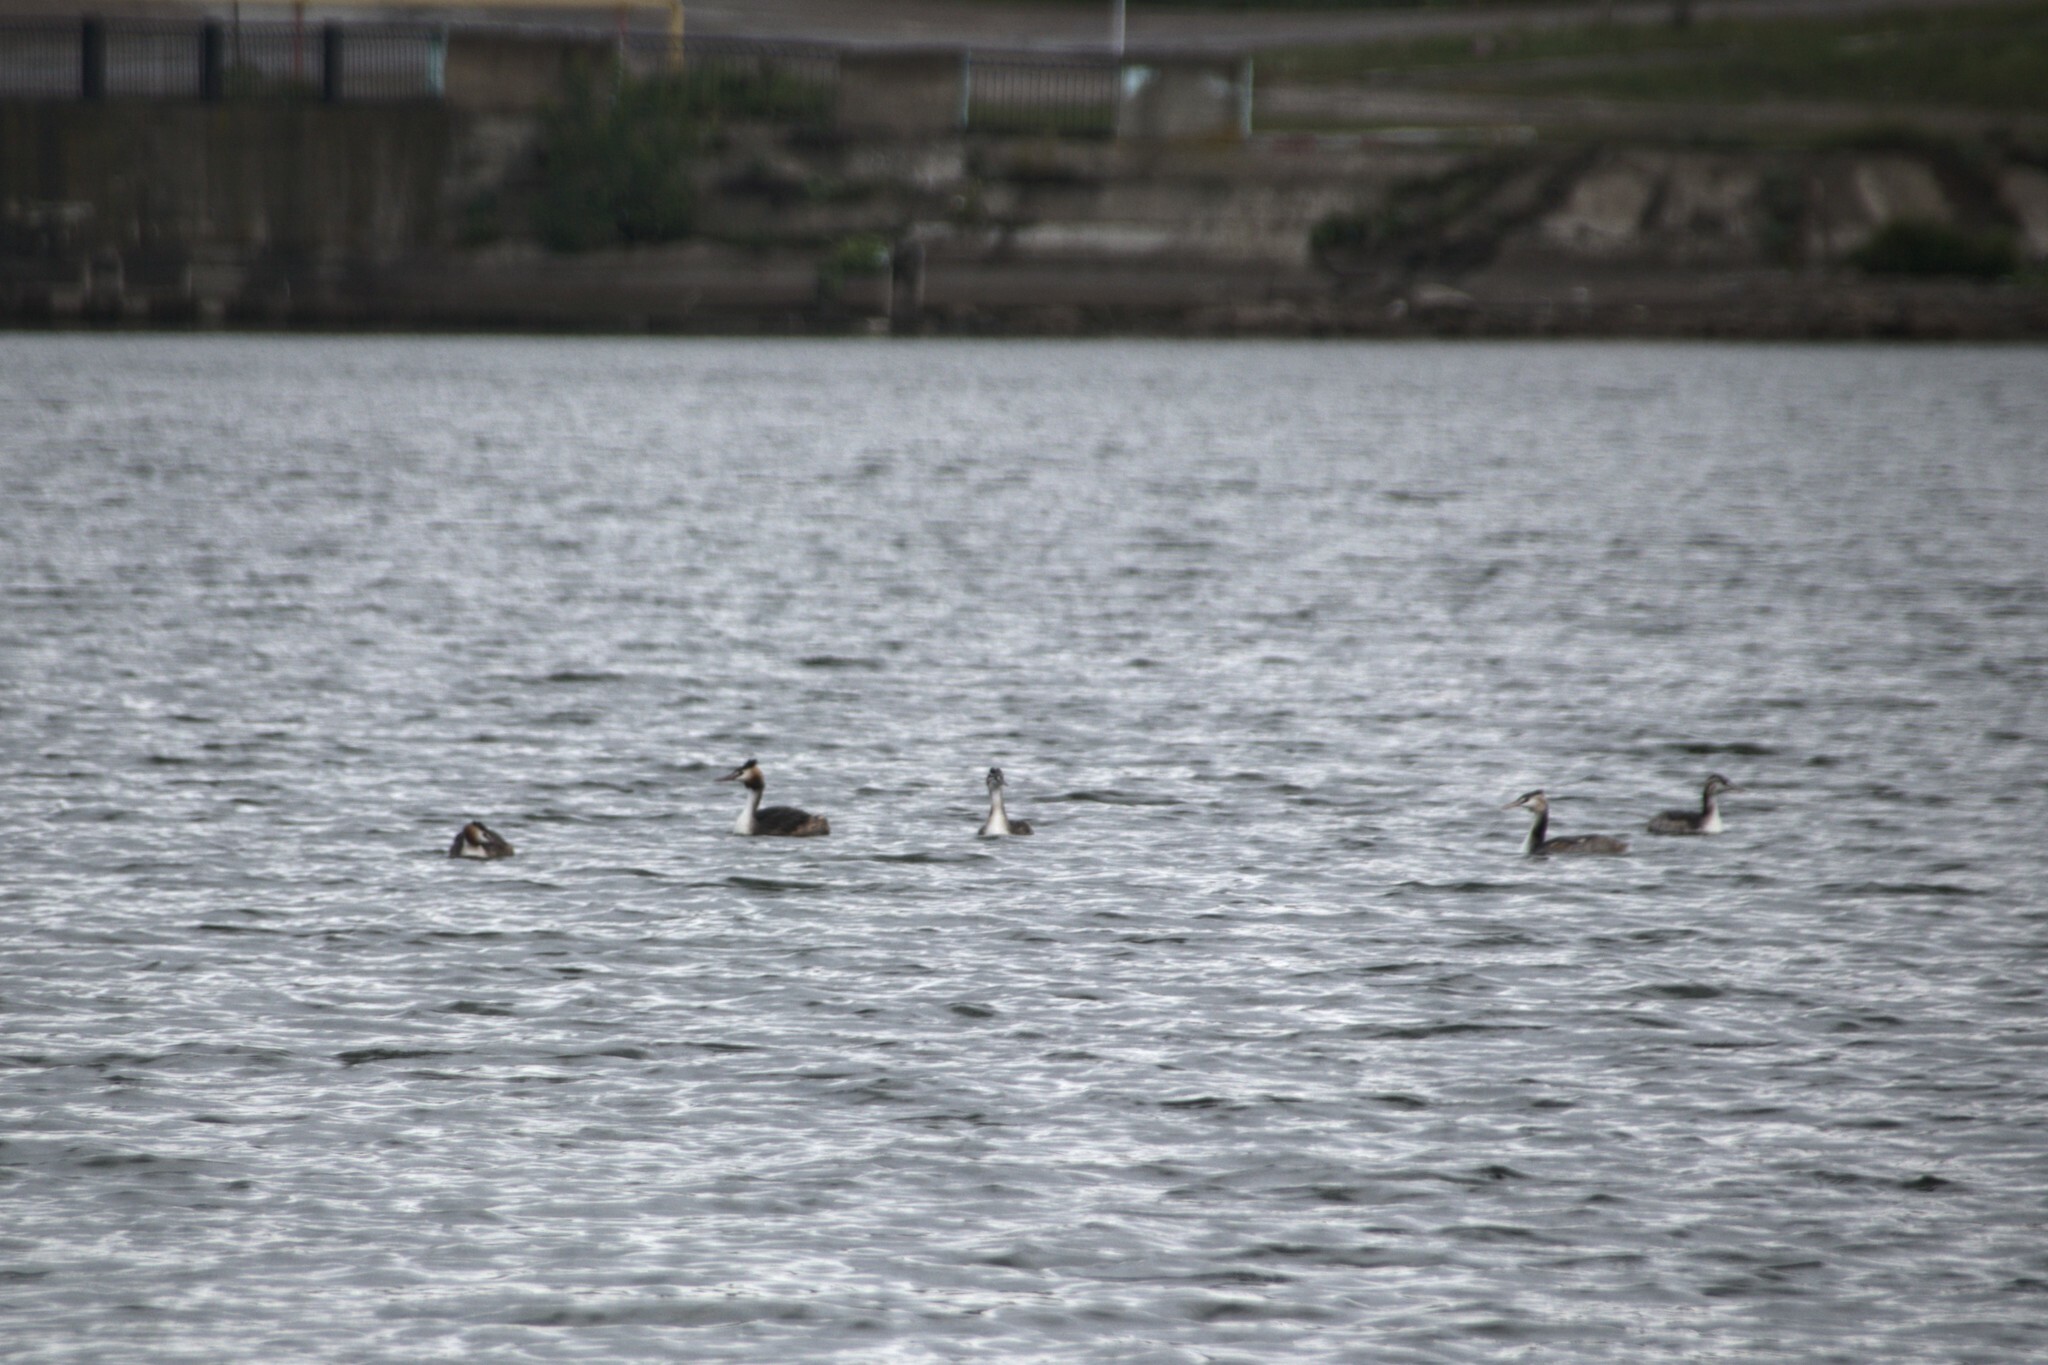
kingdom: Animalia
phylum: Chordata
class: Aves
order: Podicipediformes
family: Podicipedidae
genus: Podiceps
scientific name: Podiceps cristatus
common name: Great crested grebe
